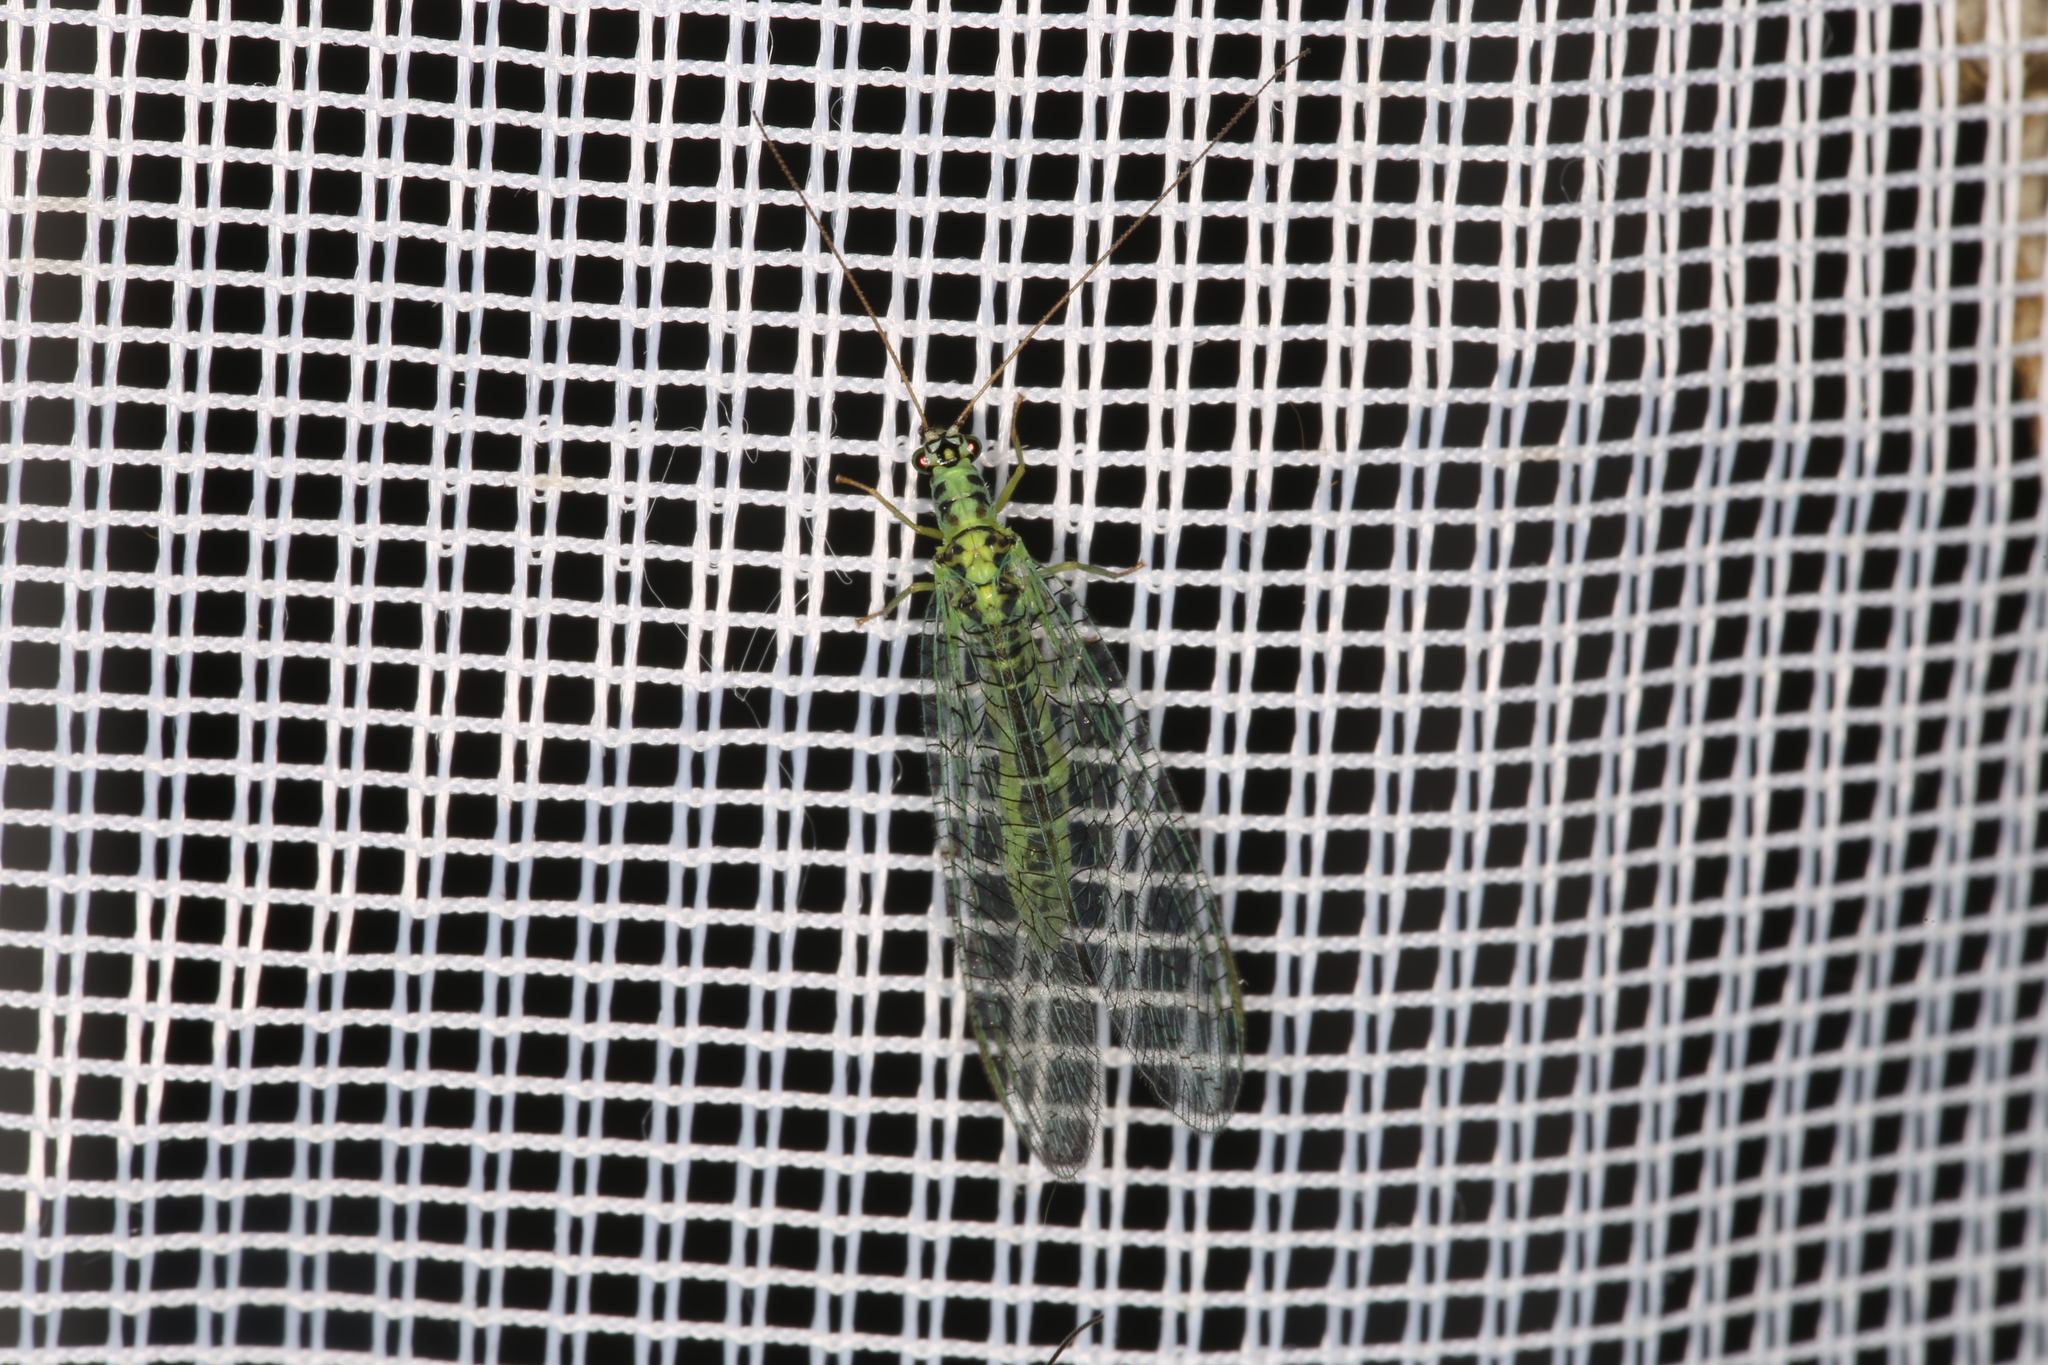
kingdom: Animalia
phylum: Arthropoda
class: Insecta
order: Neuroptera
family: Chrysopidae
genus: Chrysopa
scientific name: Chrysopa perla
